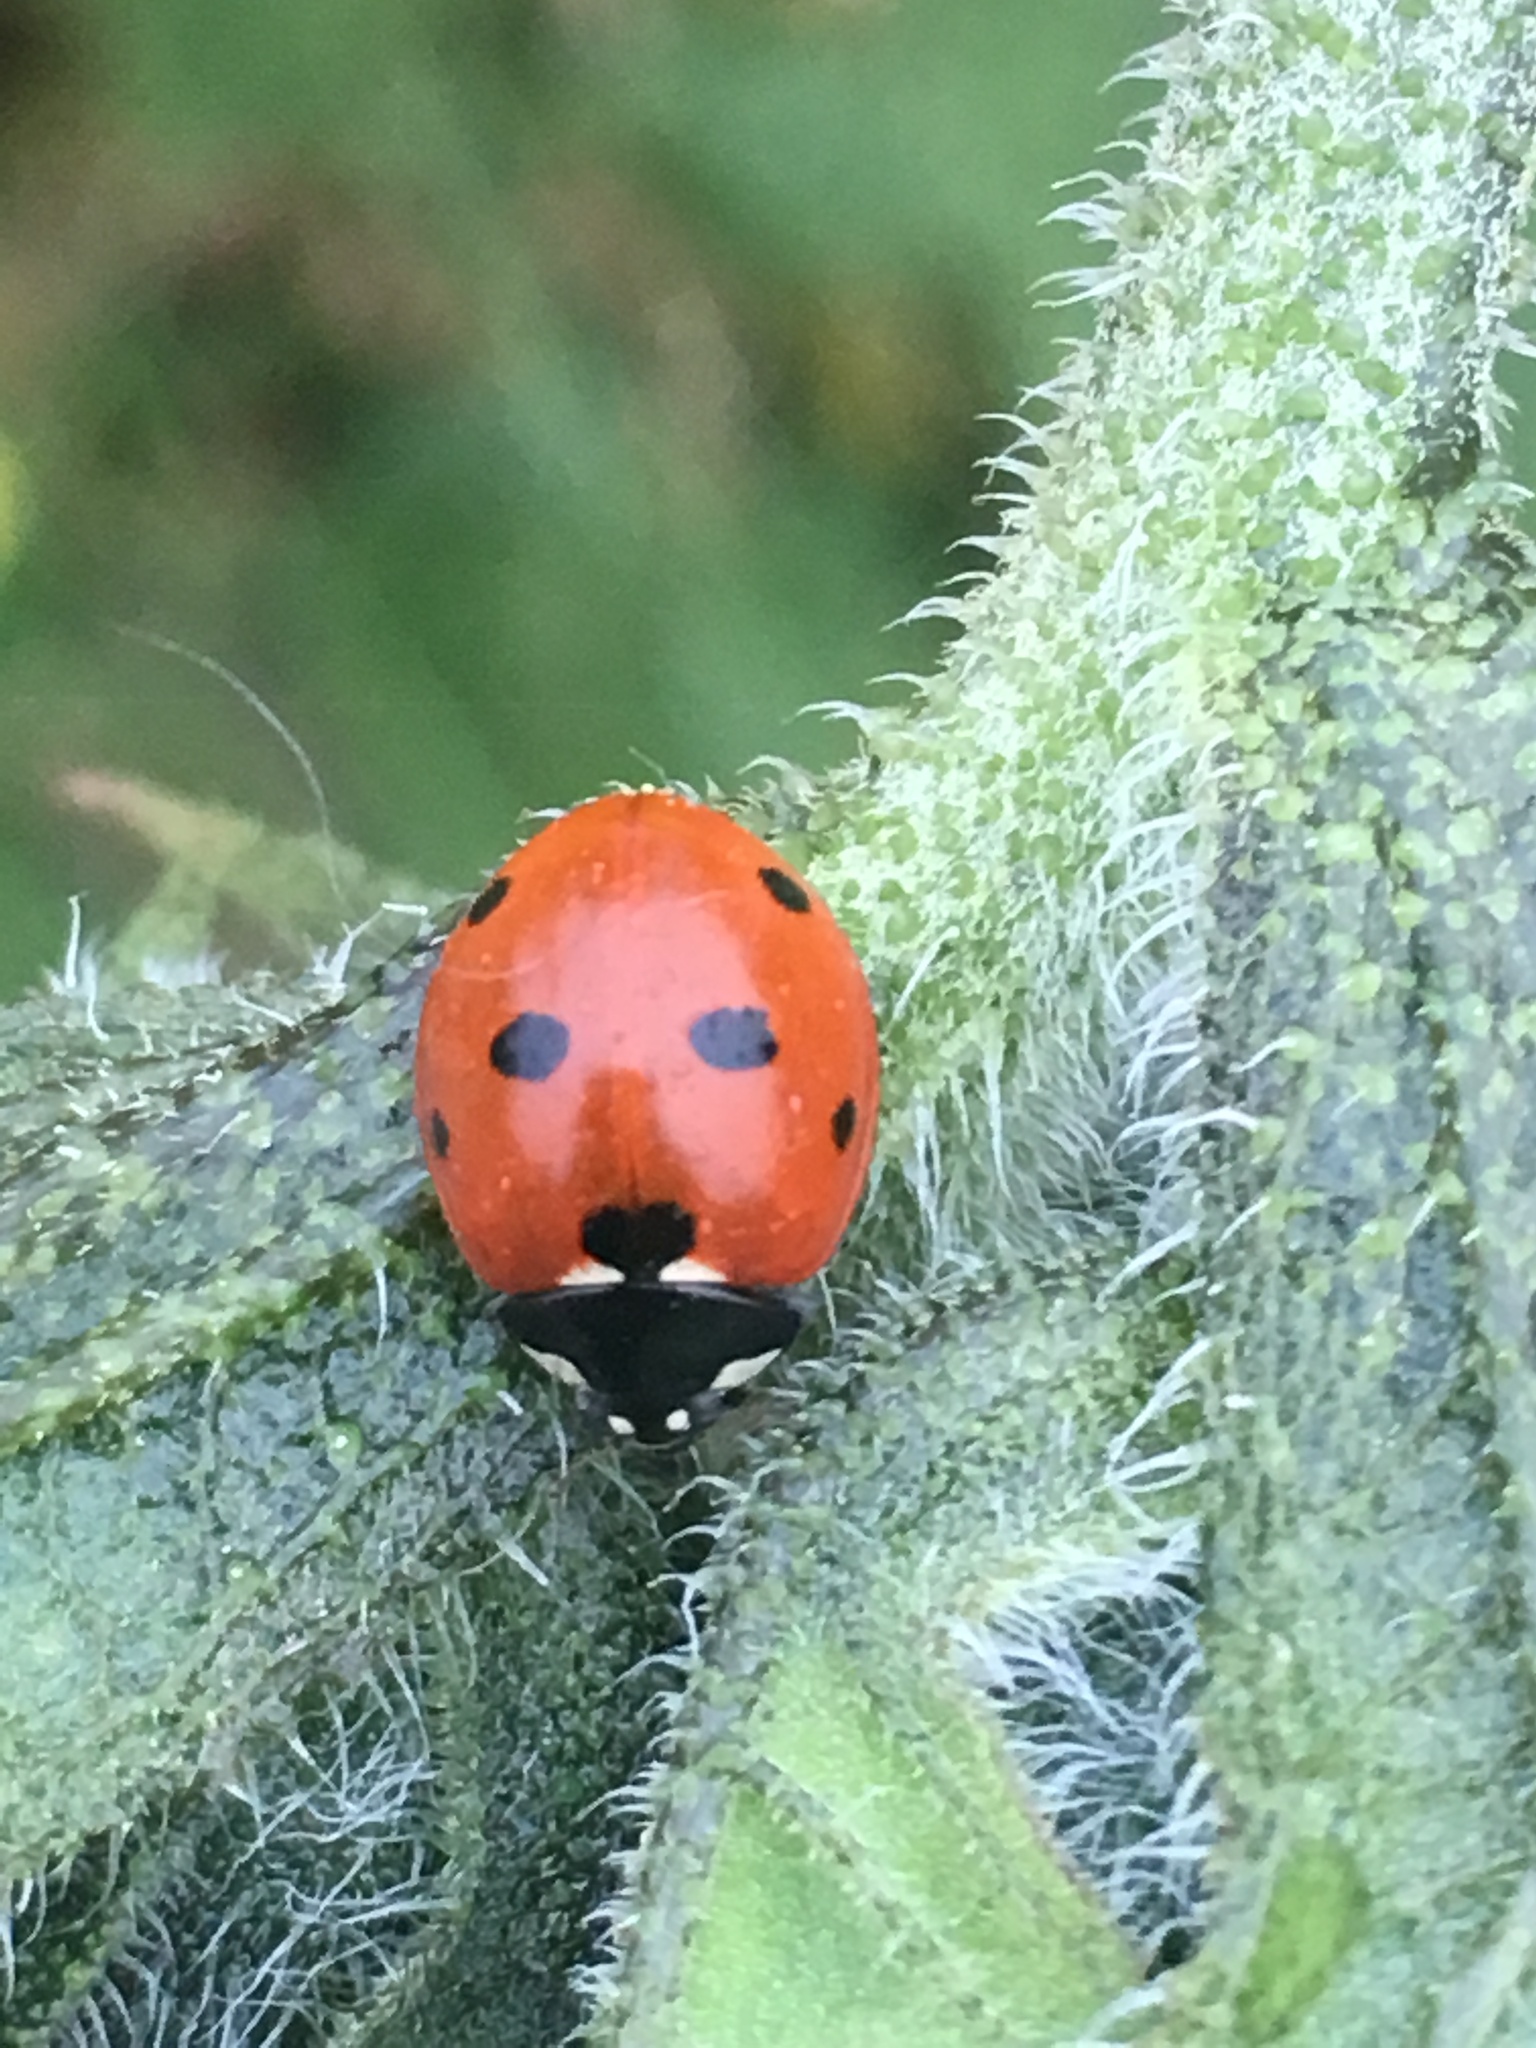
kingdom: Animalia
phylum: Arthropoda
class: Insecta
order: Coleoptera
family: Coccinellidae
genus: Coccinella
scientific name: Coccinella septempunctata
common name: Sevenspotted lady beetle
